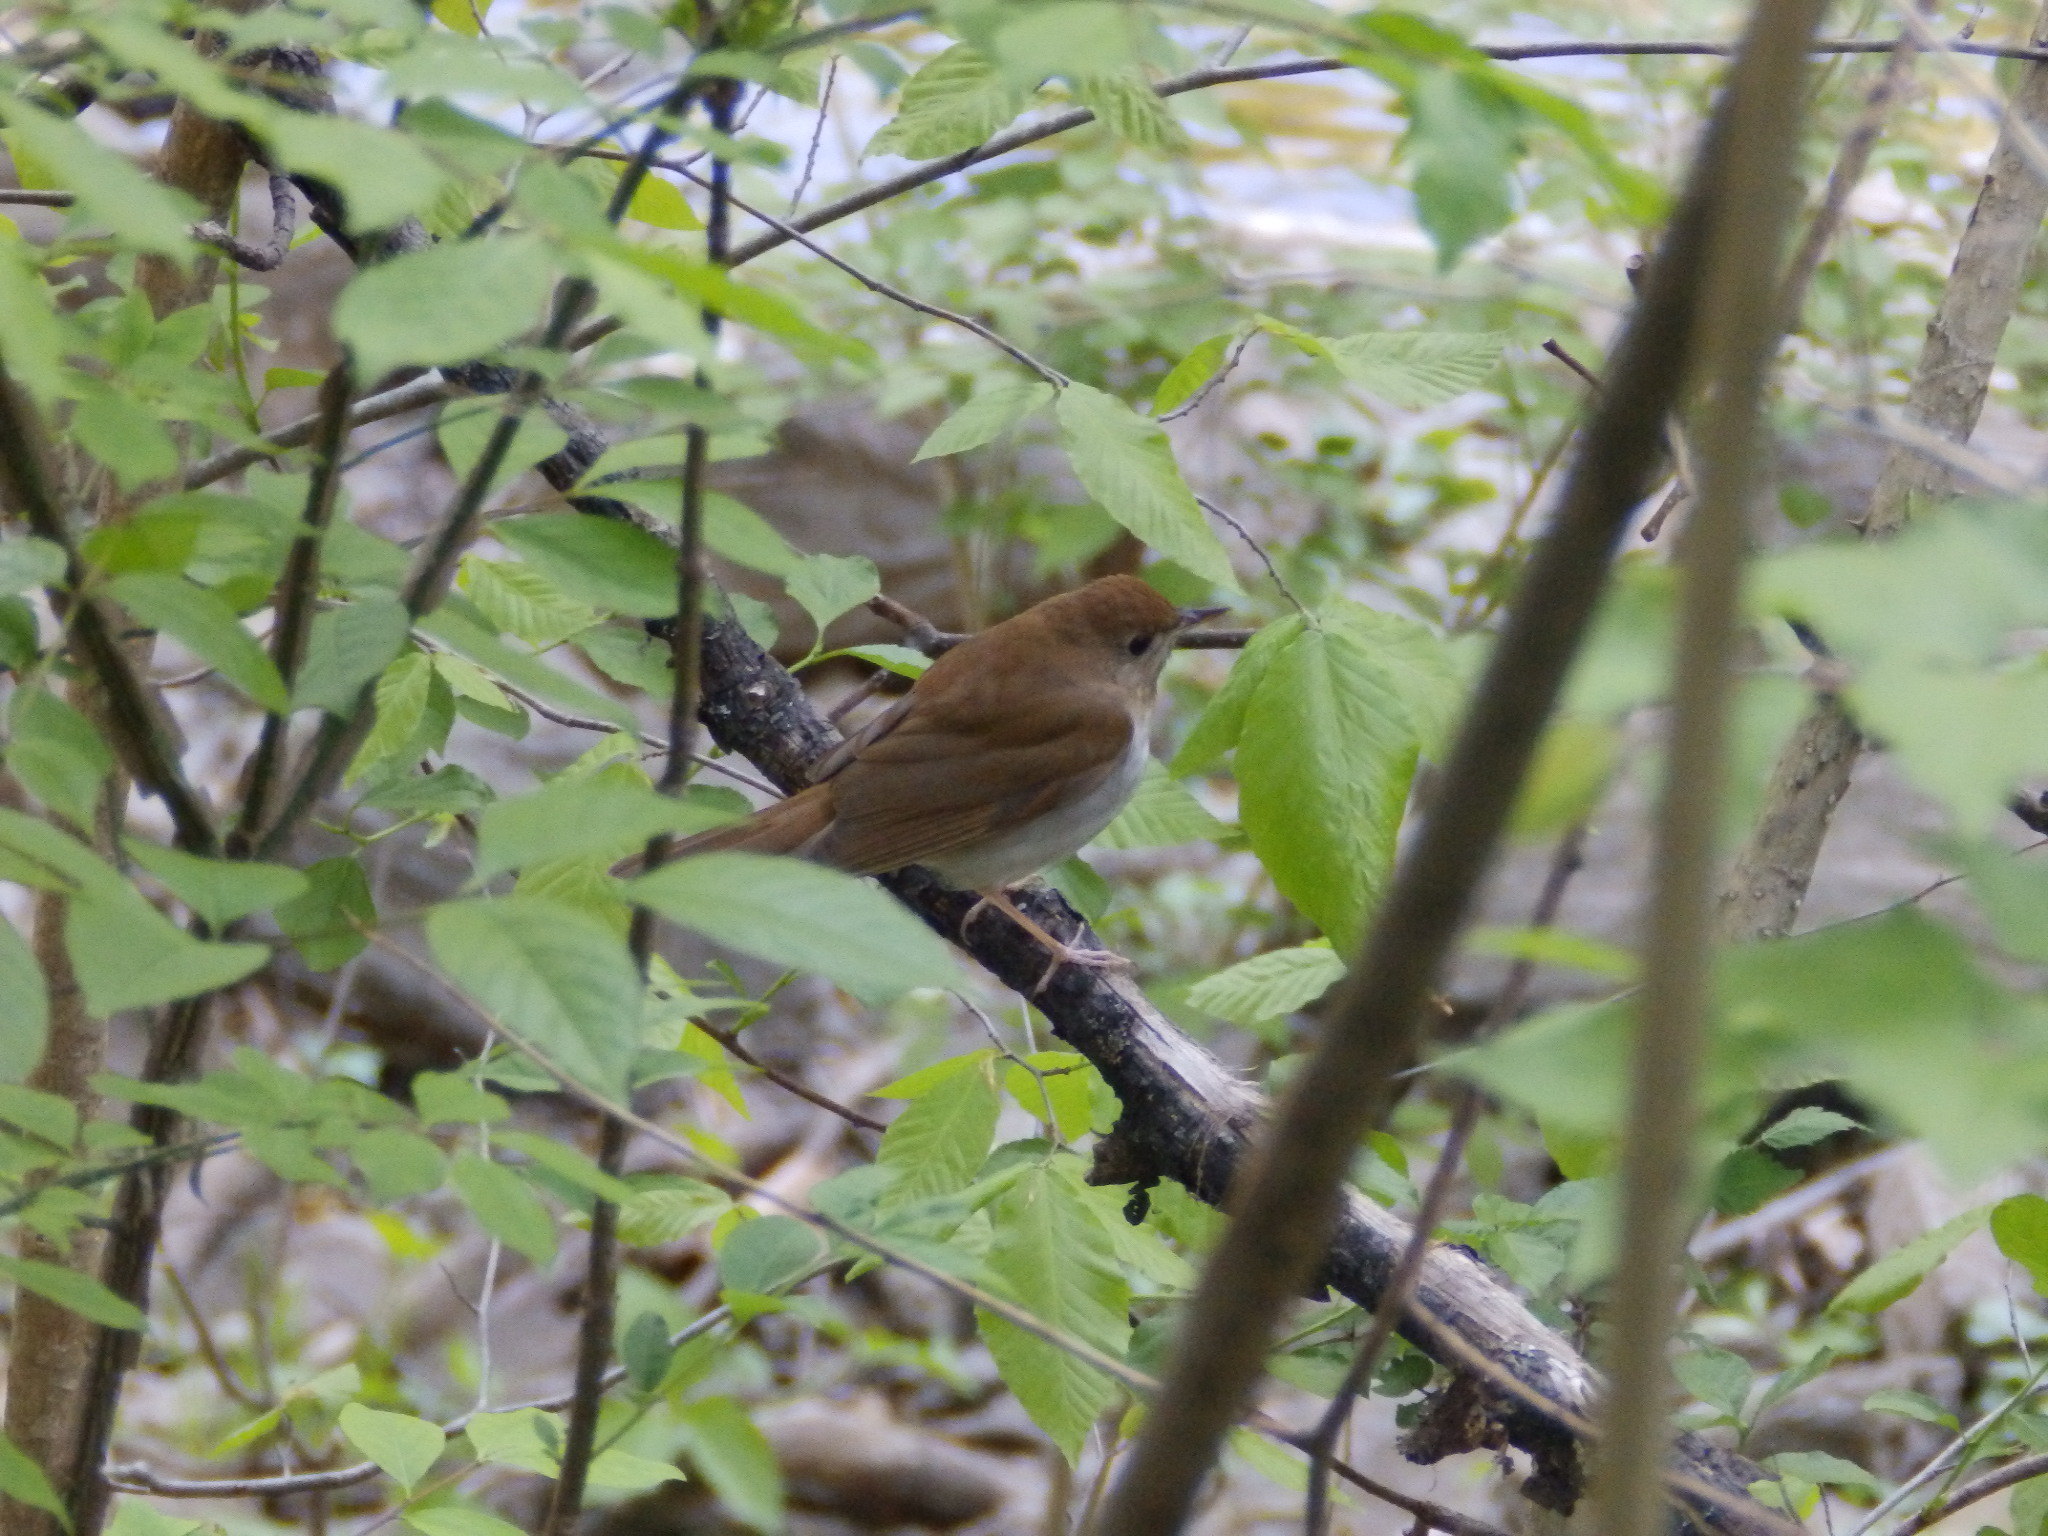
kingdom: Animalia
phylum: Chordata
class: Aves
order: Passeriformes
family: Turdidae
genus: Catharus
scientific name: Catharus fuscescens
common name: Veery
